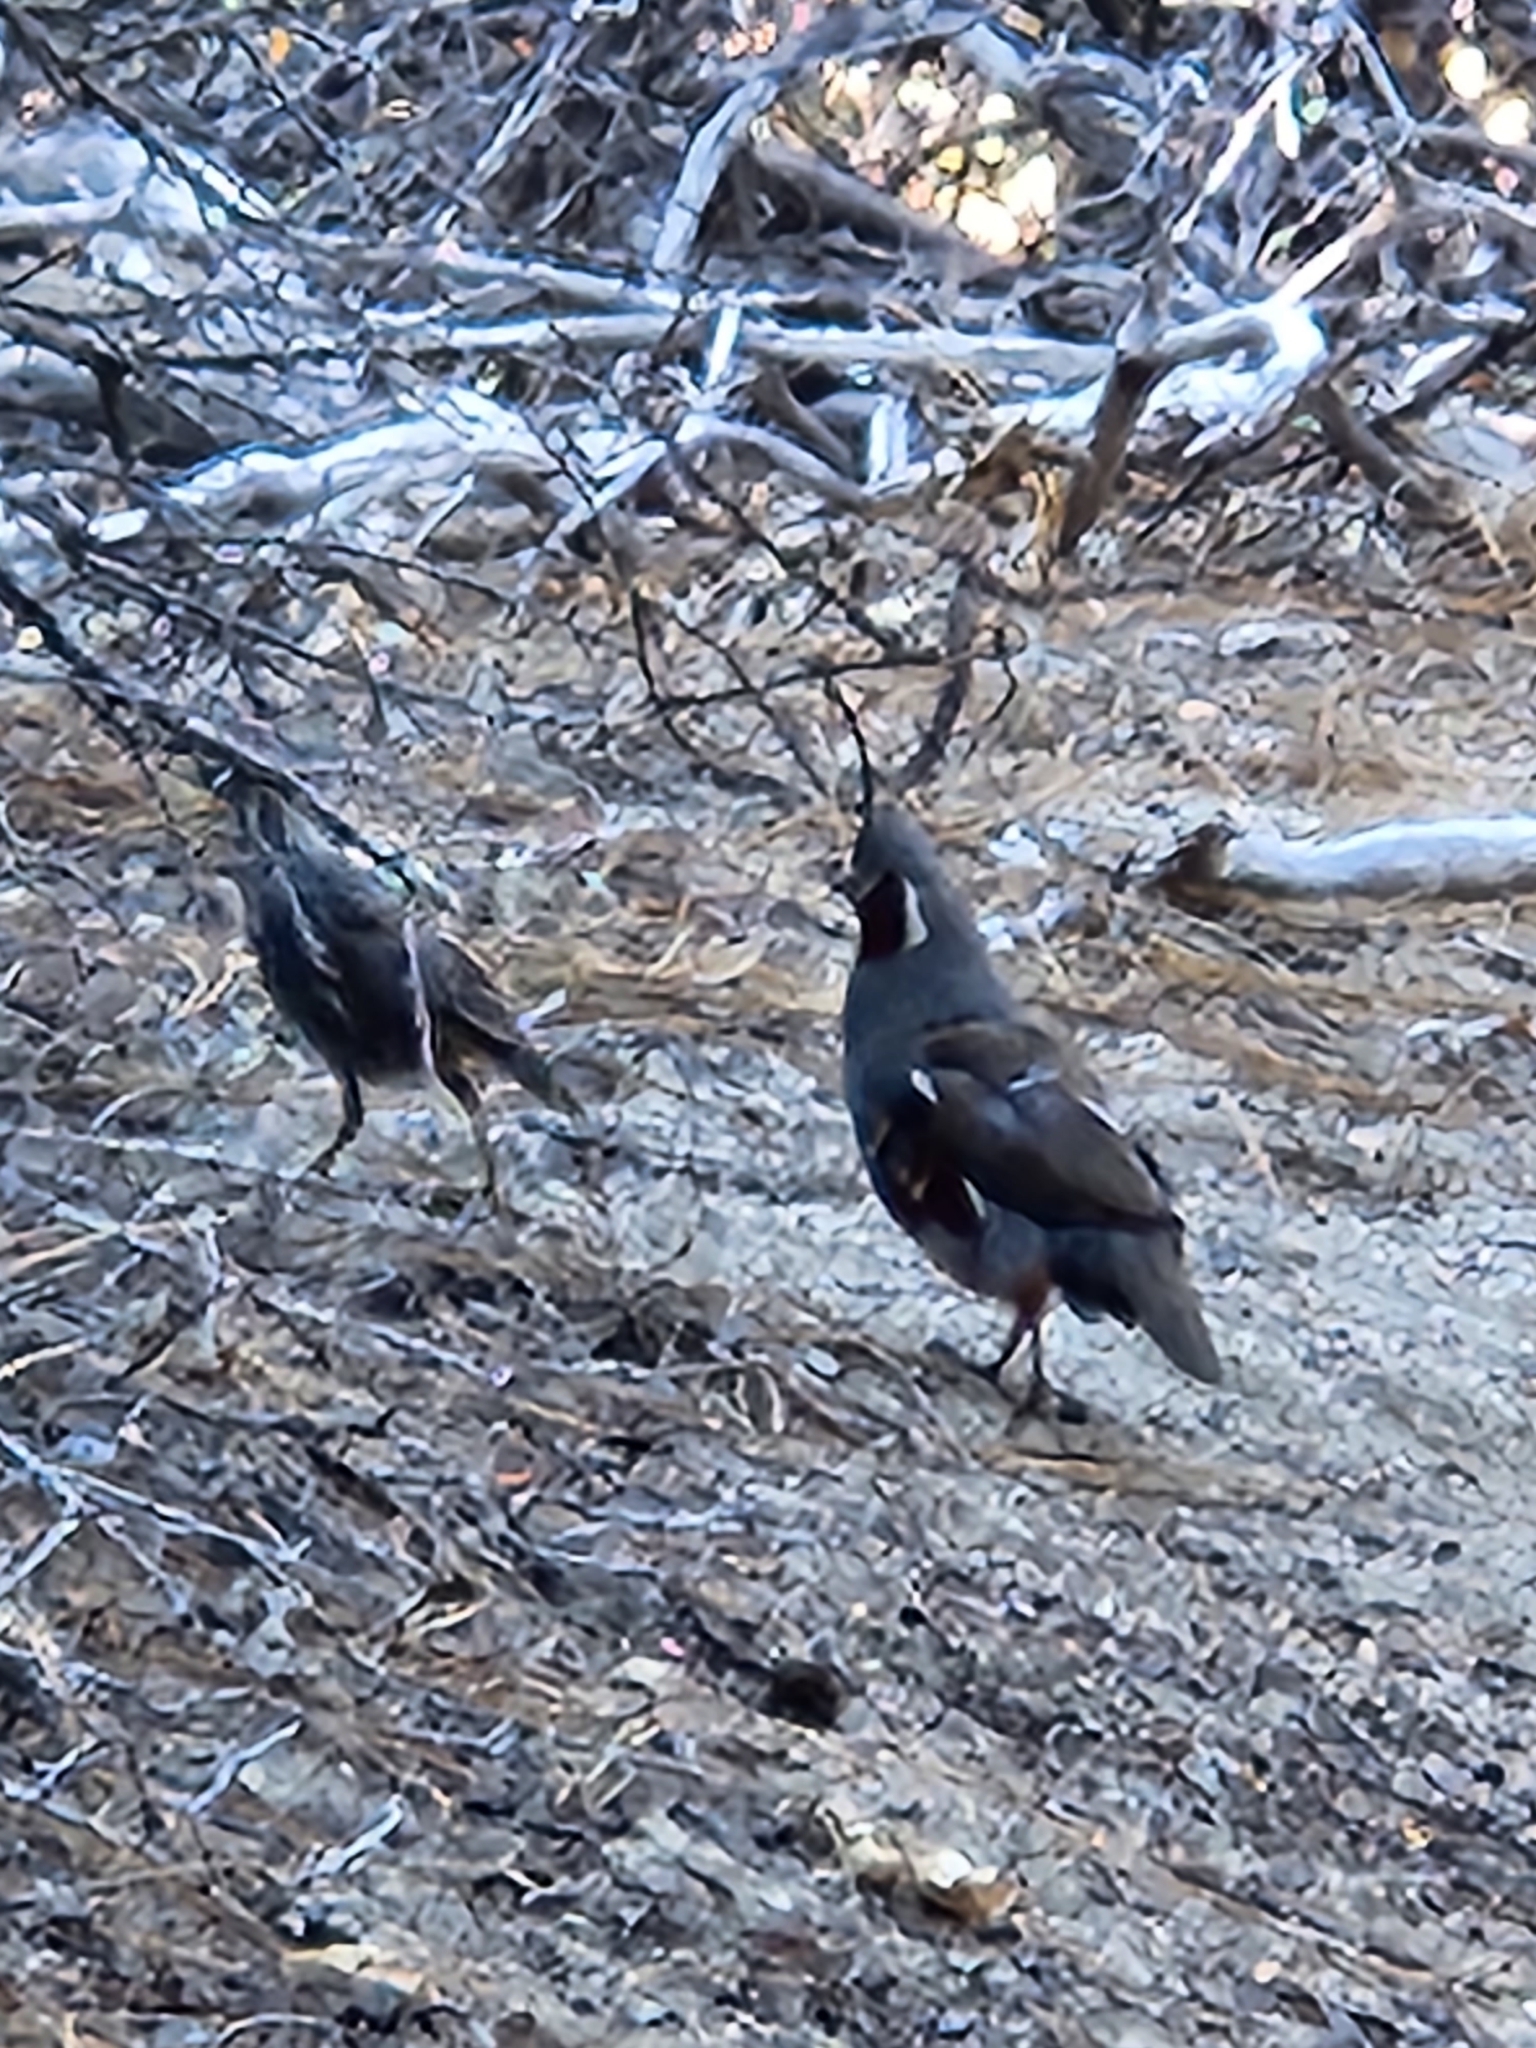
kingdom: Animalia
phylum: Chordata
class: Aves
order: Galliformes
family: Odontophoridae
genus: Oreortyx
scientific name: Oreortyx pictus
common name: Mountain quail
